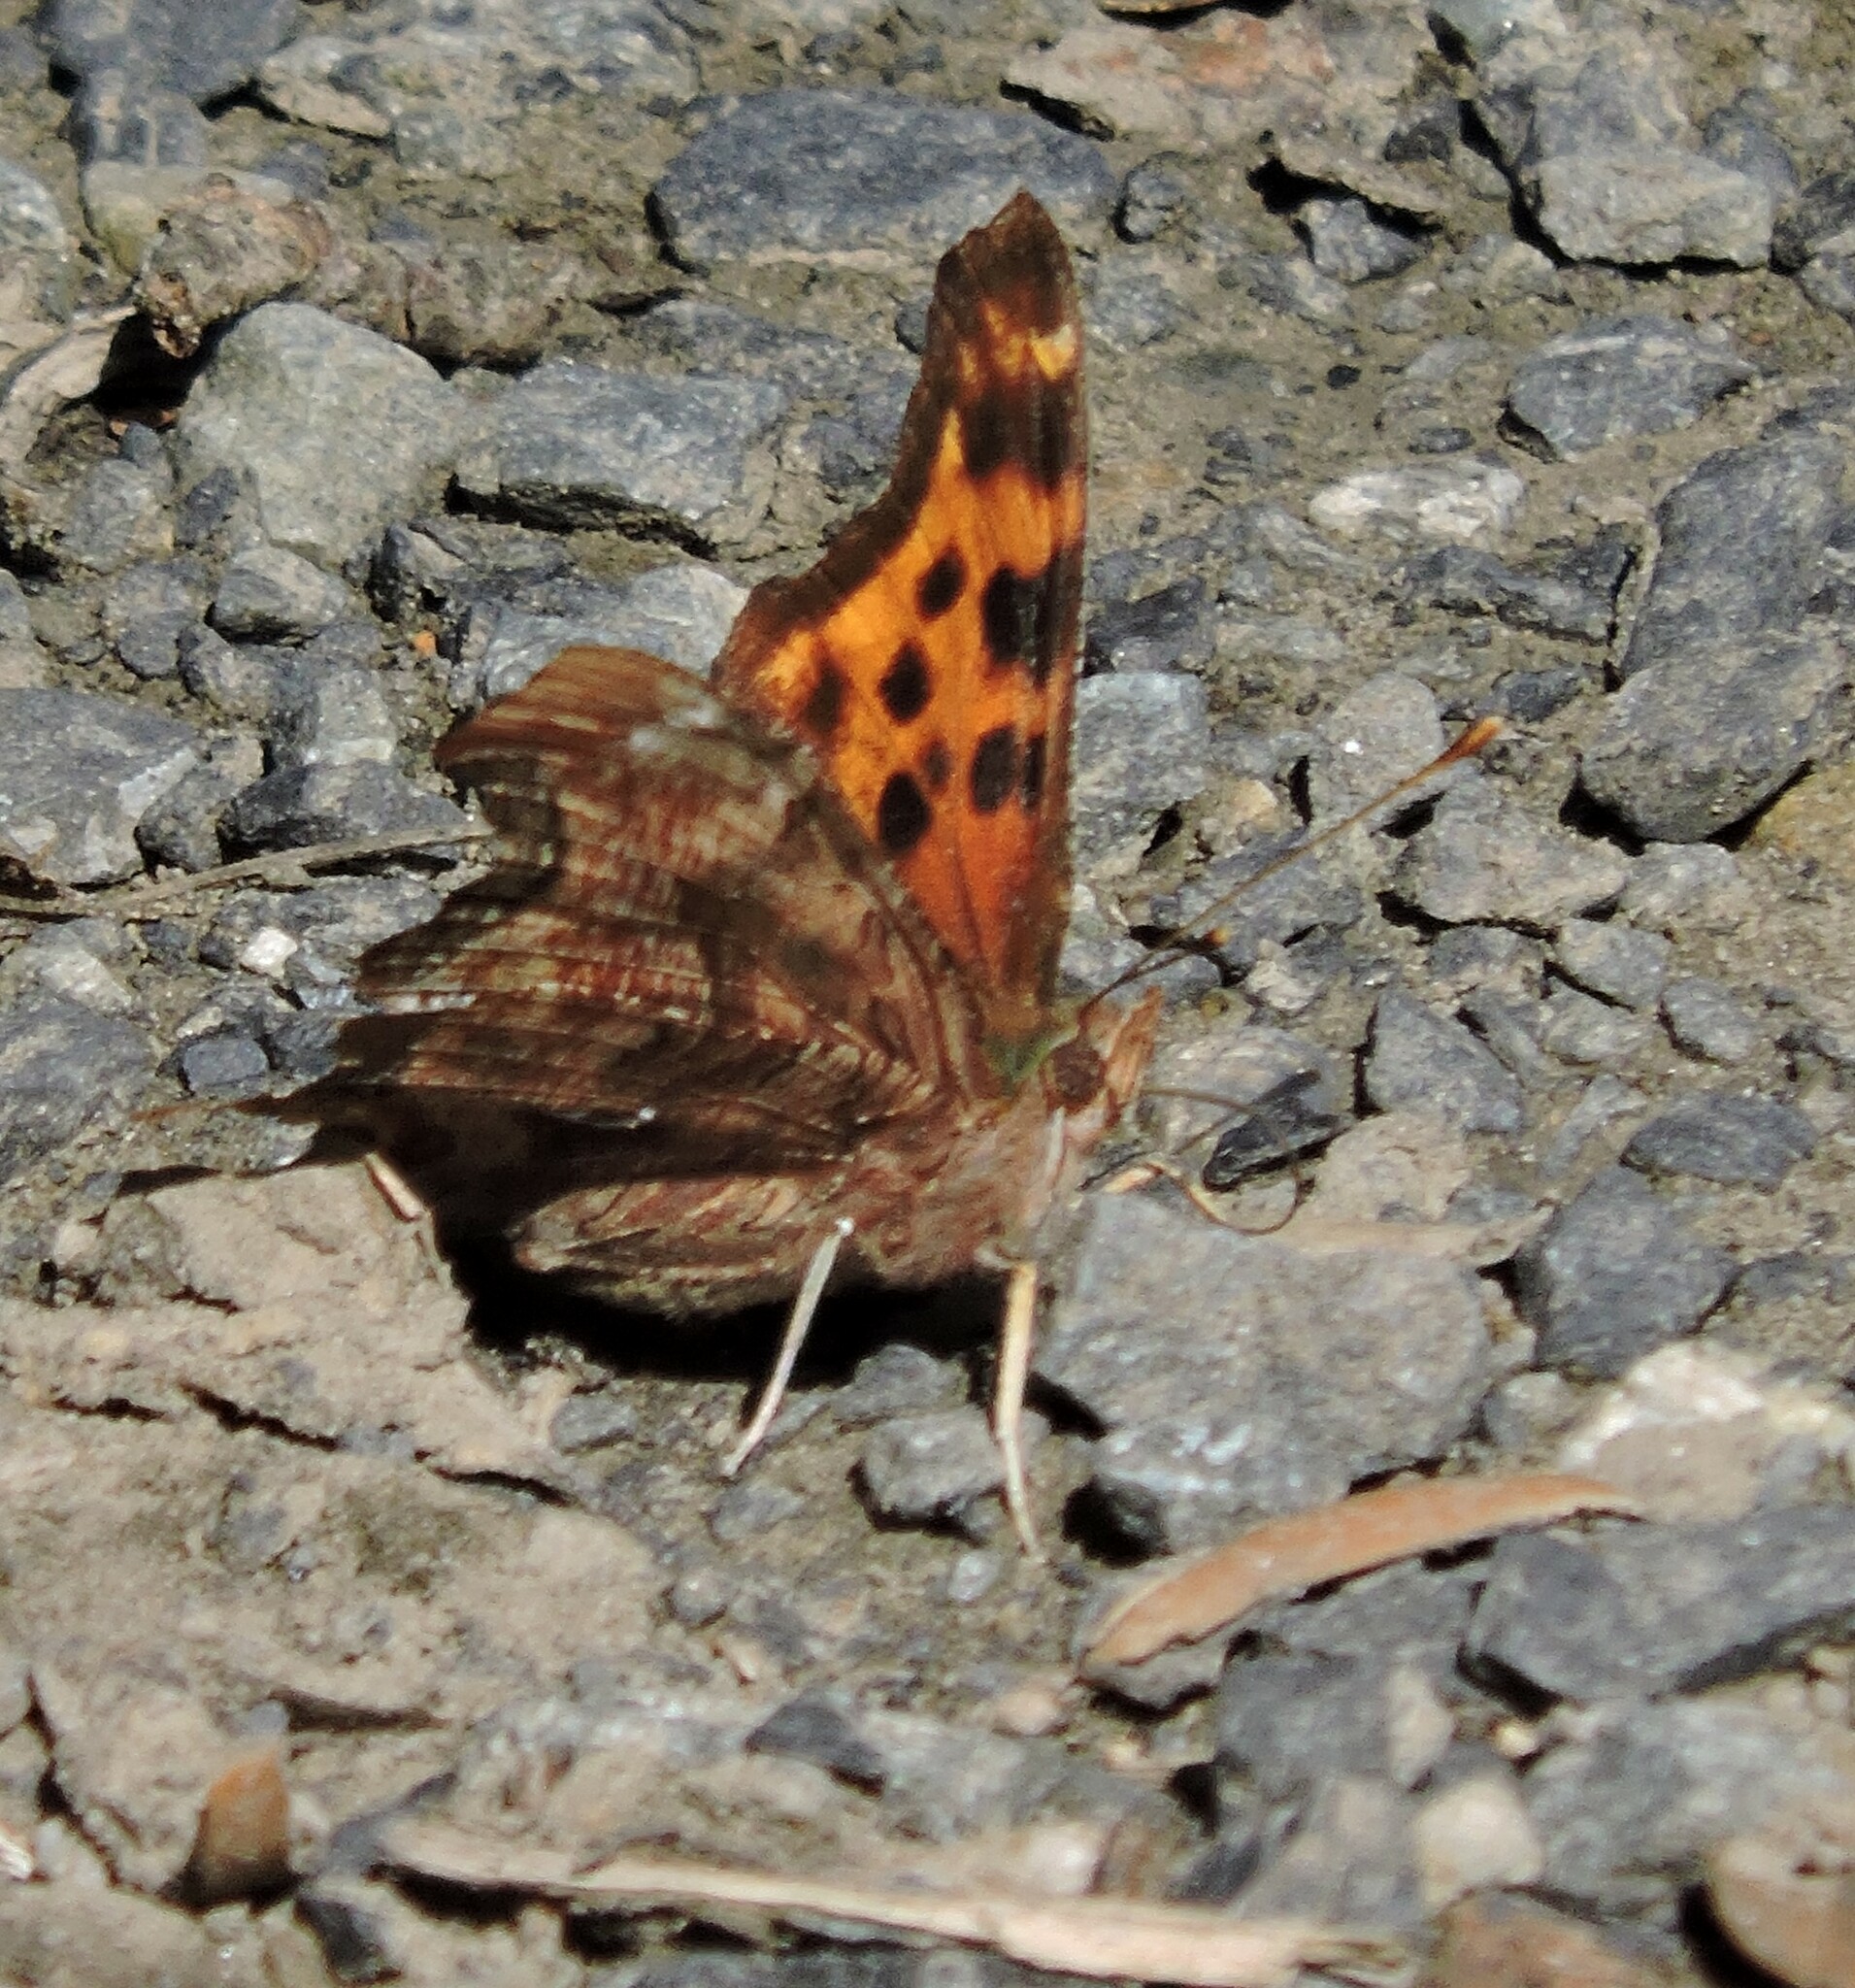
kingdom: Animalia
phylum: Arthropoda
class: Insecta
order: Lepidoptera
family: Nymphalidae
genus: Polygonia
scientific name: Polygonia satyrus
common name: Satyr angle wing
